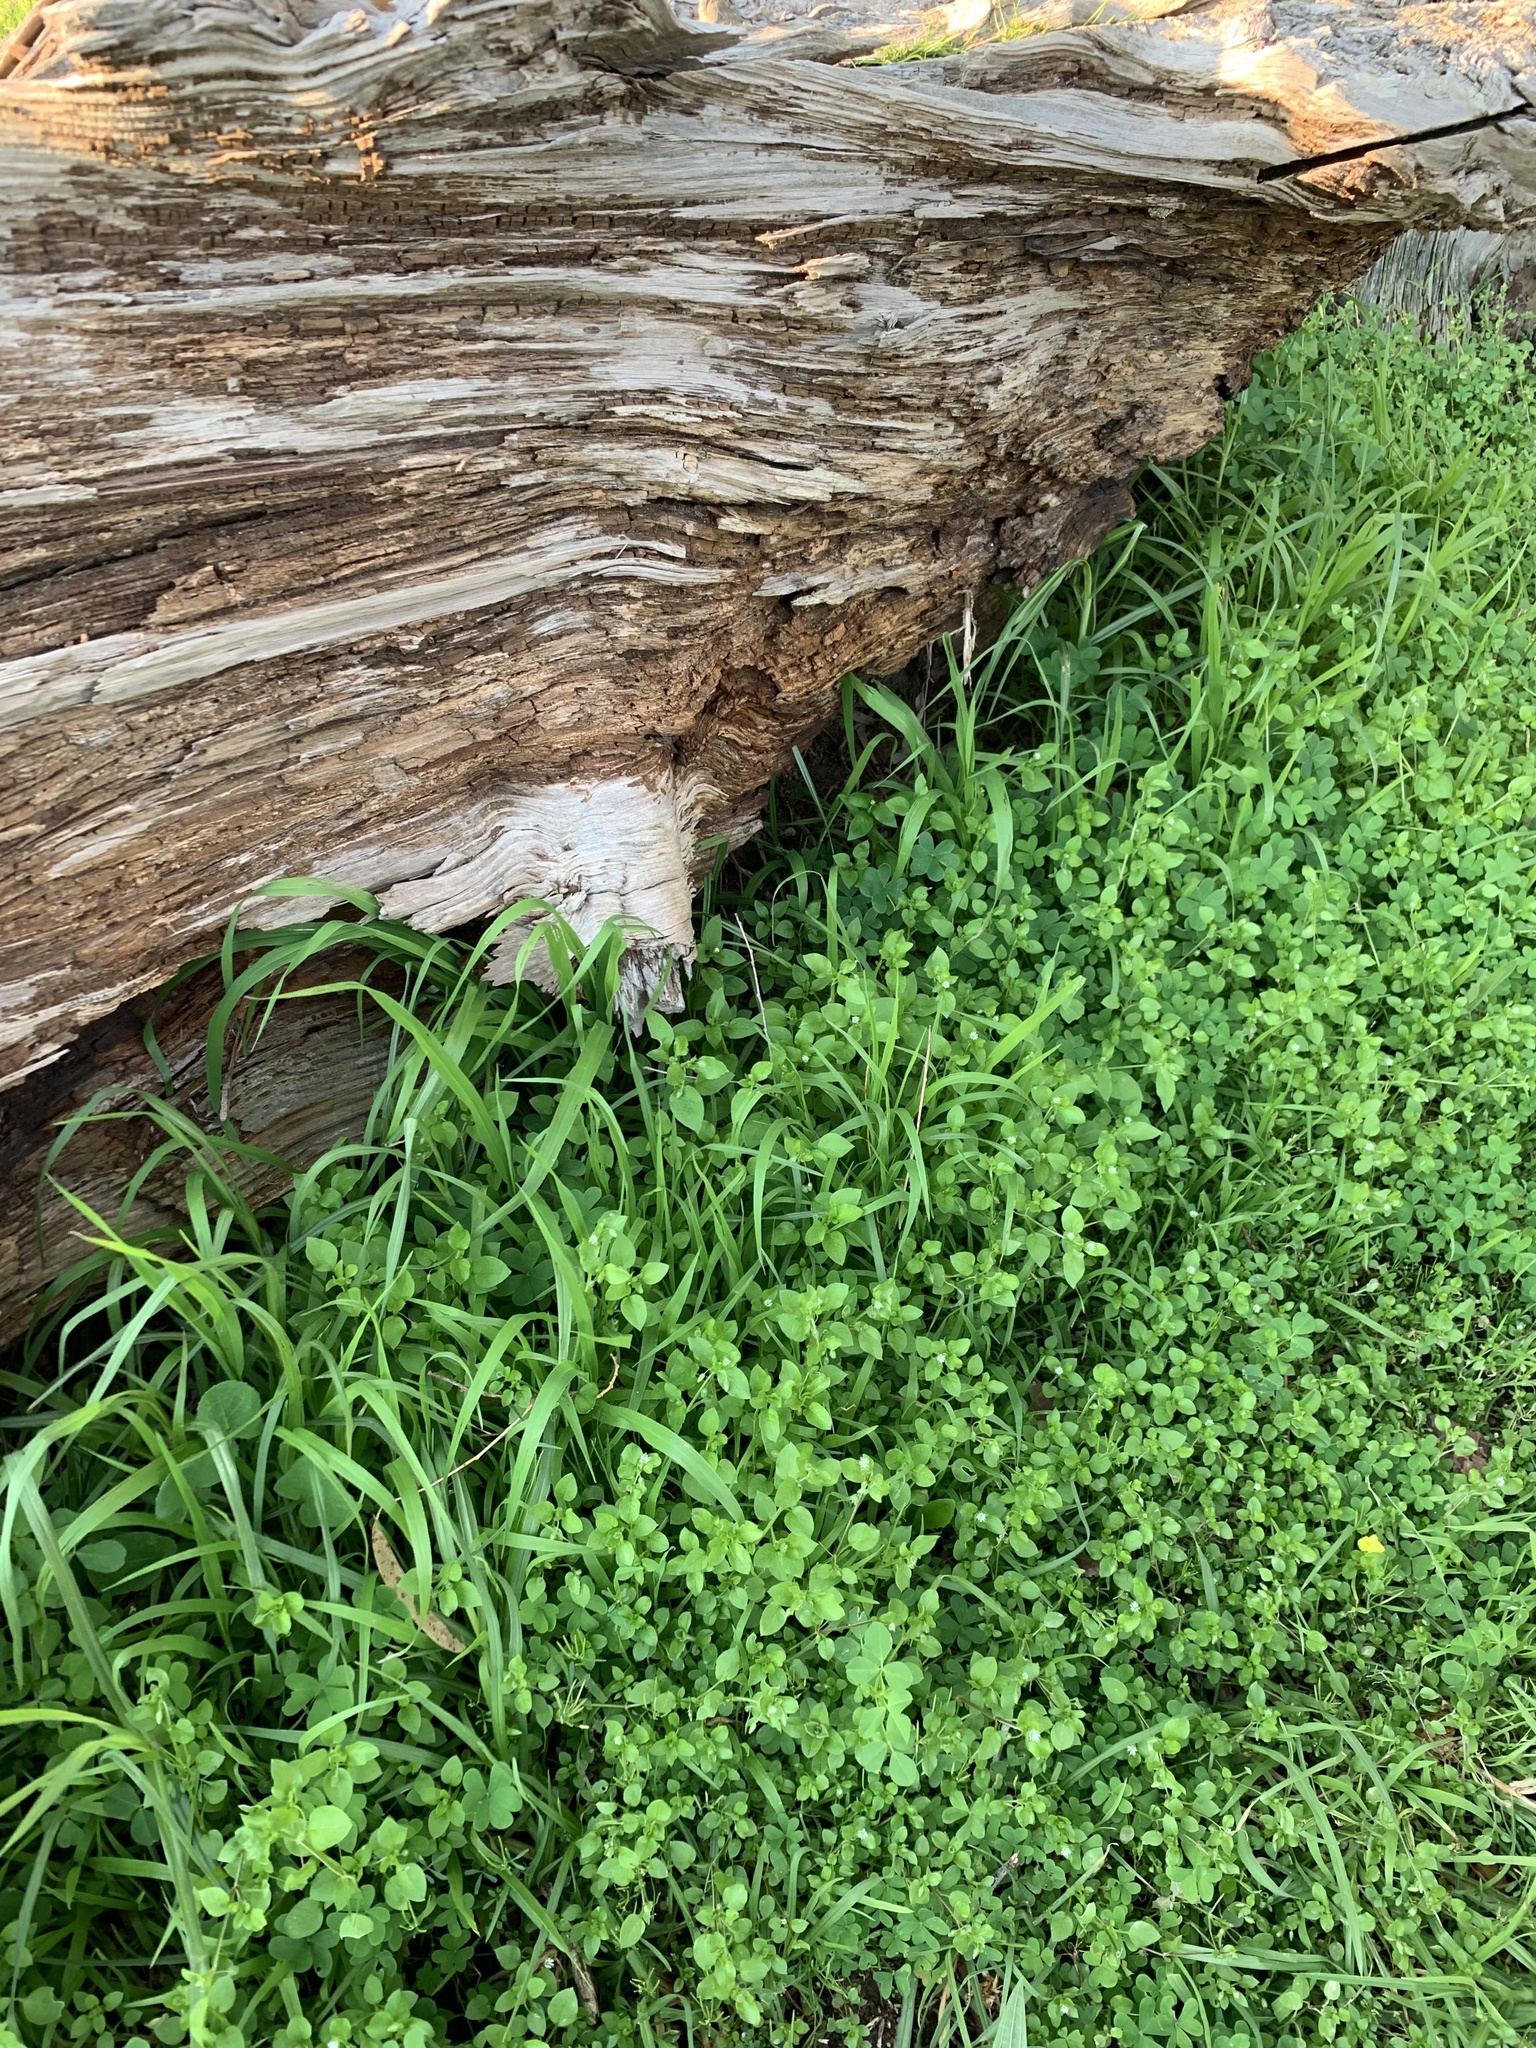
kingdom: Plantae
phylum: Tracheophyta
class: Magnoliopsida
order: Caryophyllales
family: Caryophyllaceae
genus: Stellaria
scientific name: Stellaria media
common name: Common chickweed
